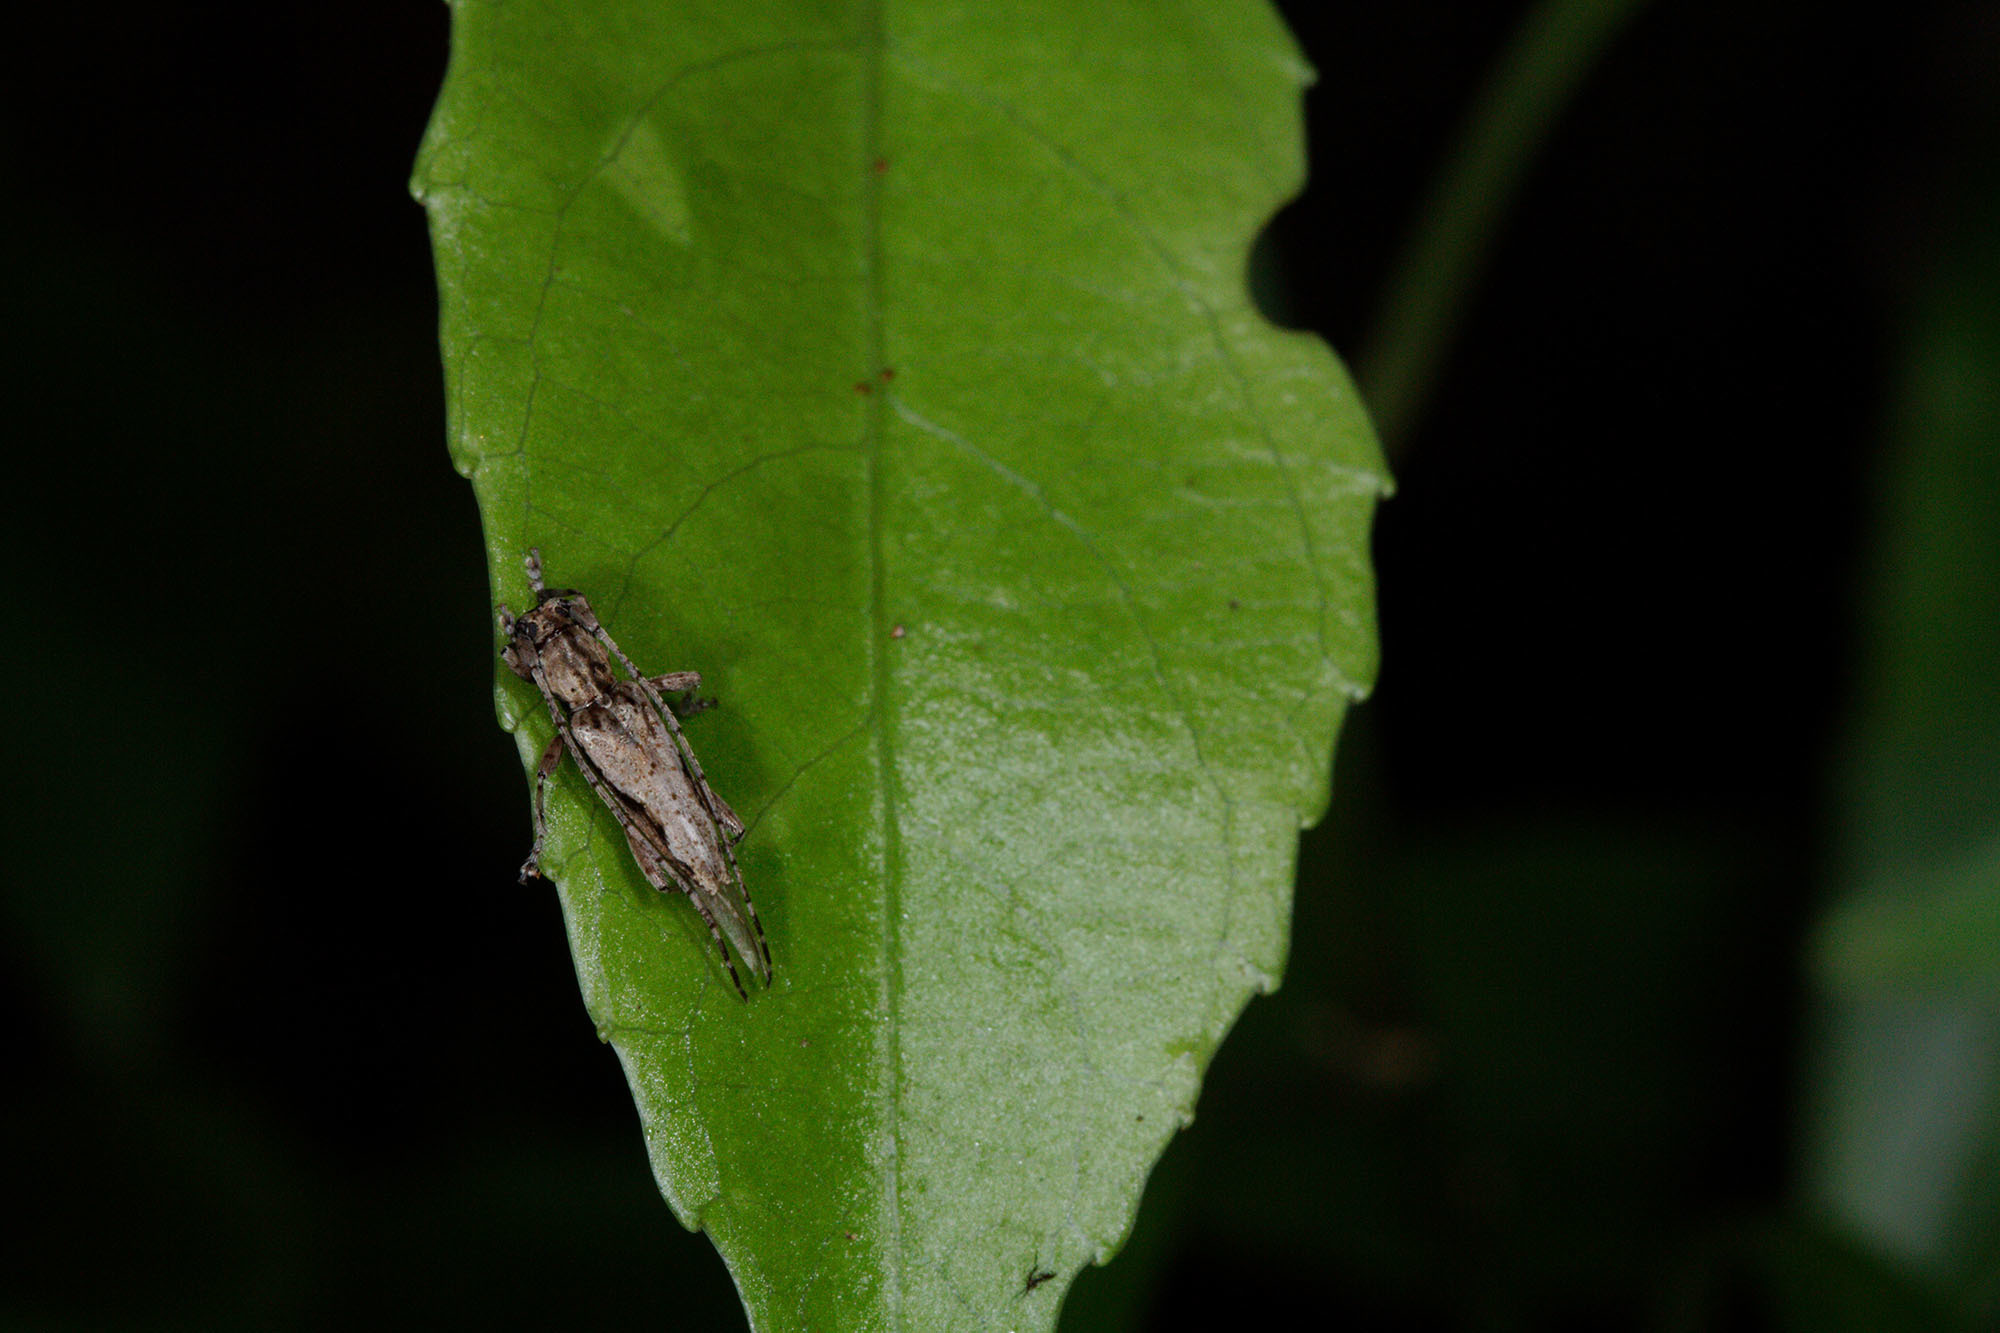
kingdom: Animalia
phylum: Arthropoda
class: Insecta
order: Coleoptera
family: Cerambycidae
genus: Stenellipsis
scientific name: Stenellipsis brouni
